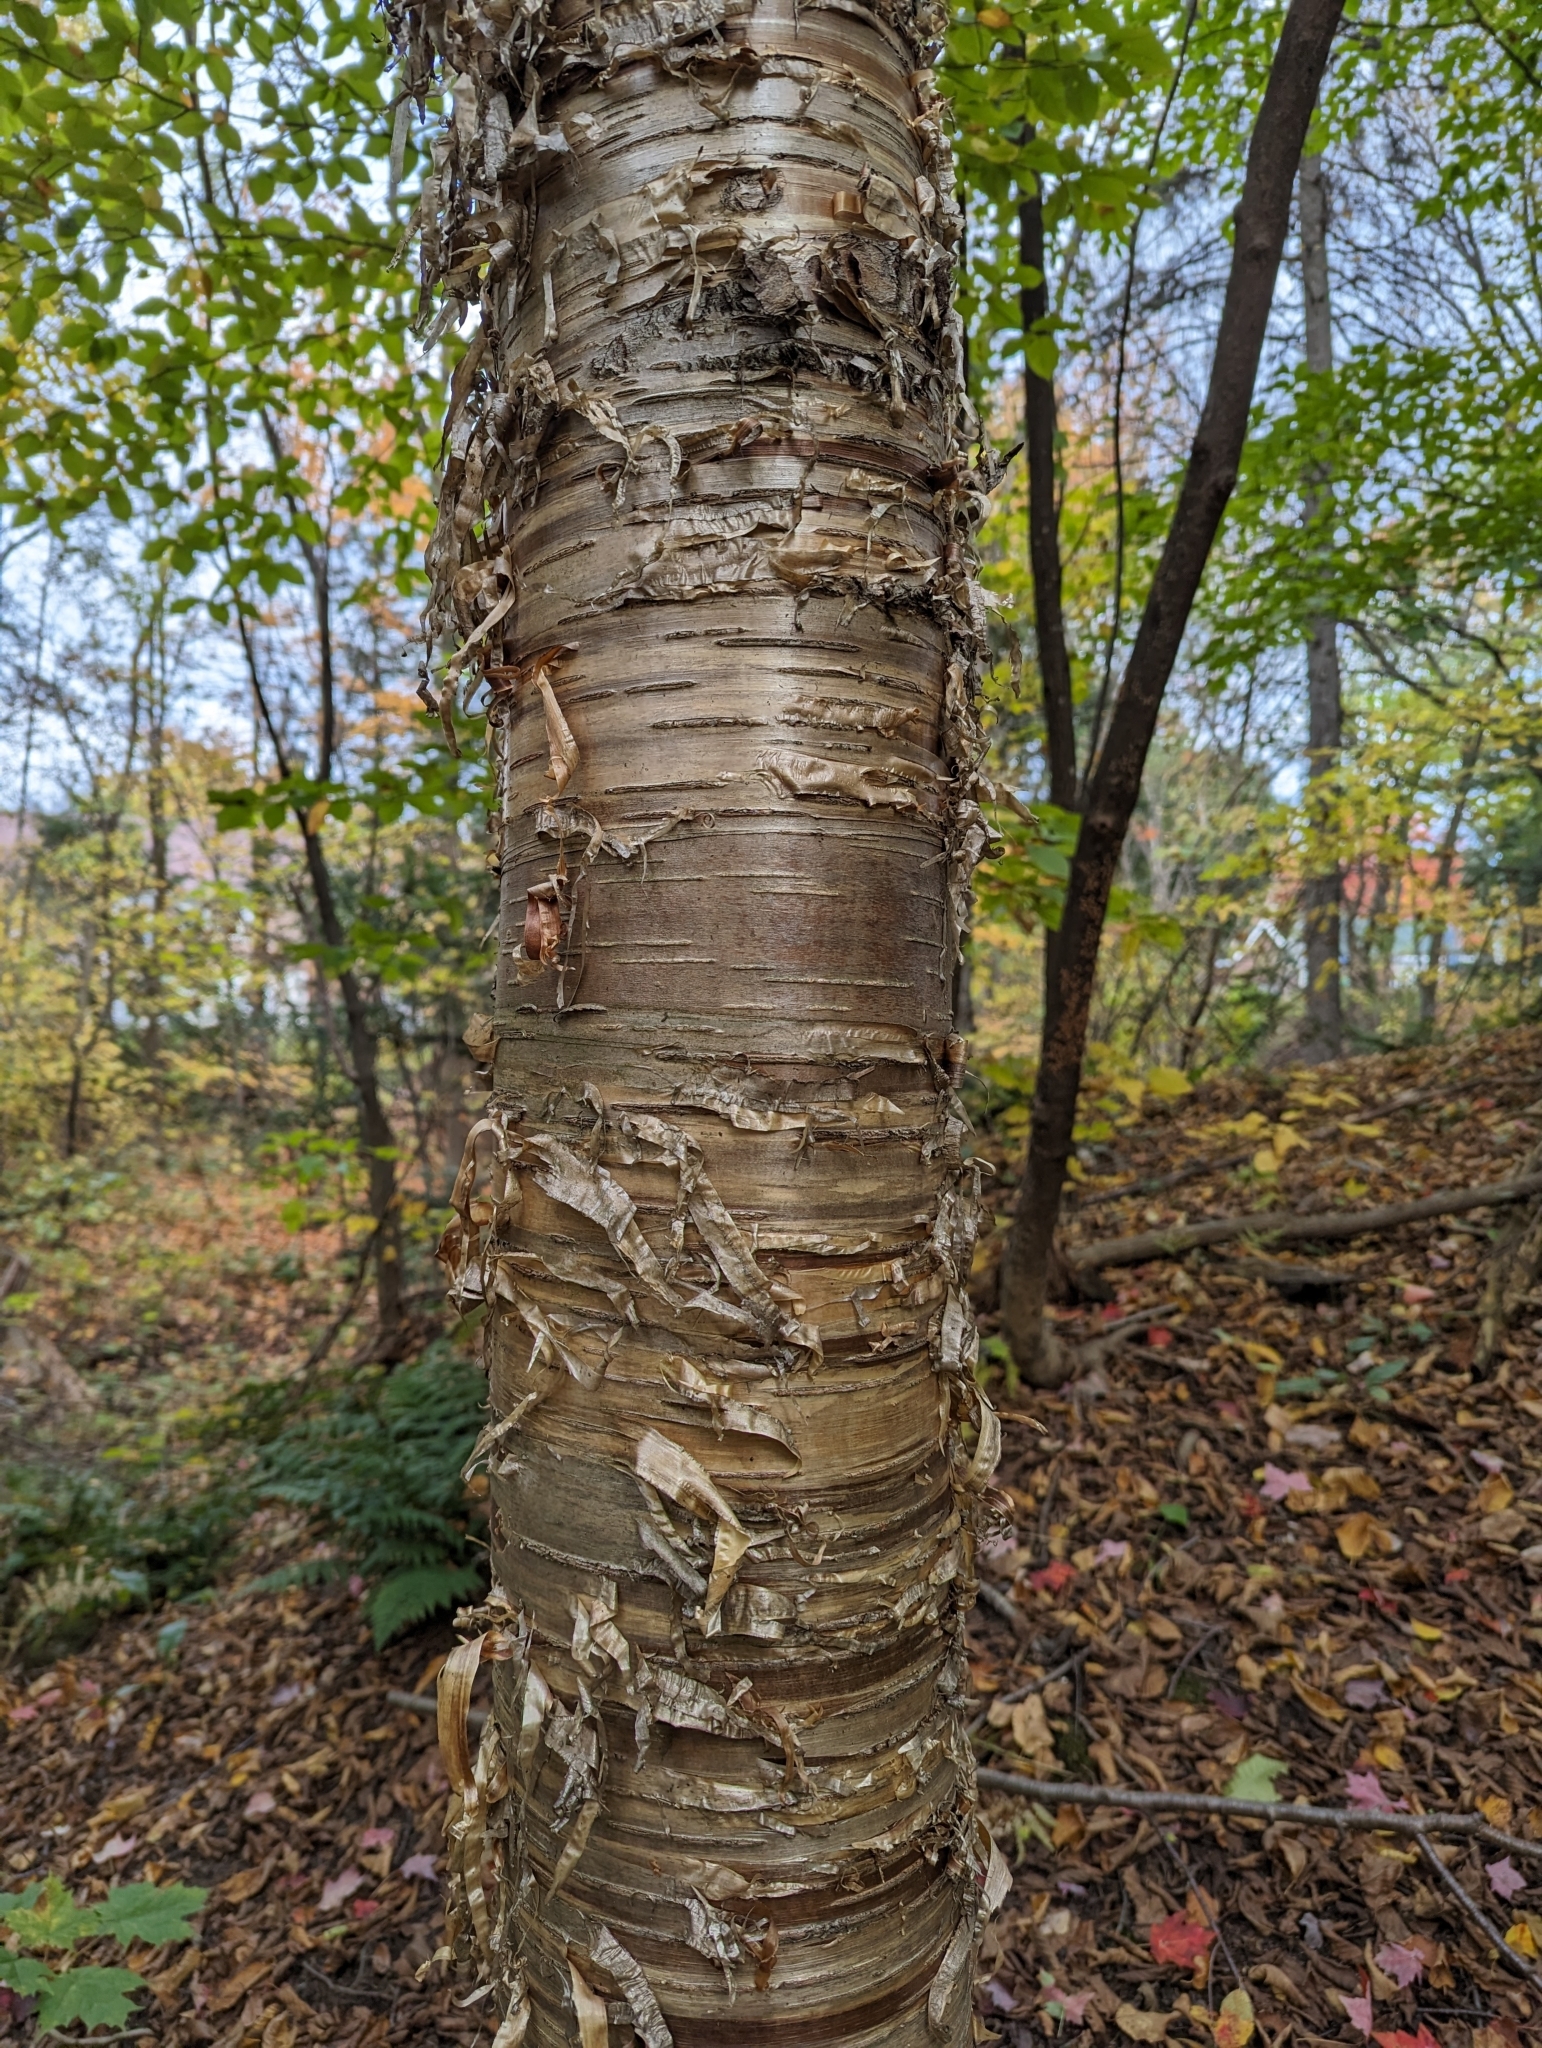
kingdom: Plantae
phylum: Tracheophyta
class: Magnoliopsida
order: Fagales
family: Betulaceae
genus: Betula
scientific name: Betula alleghaniensis
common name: Yellow birch
